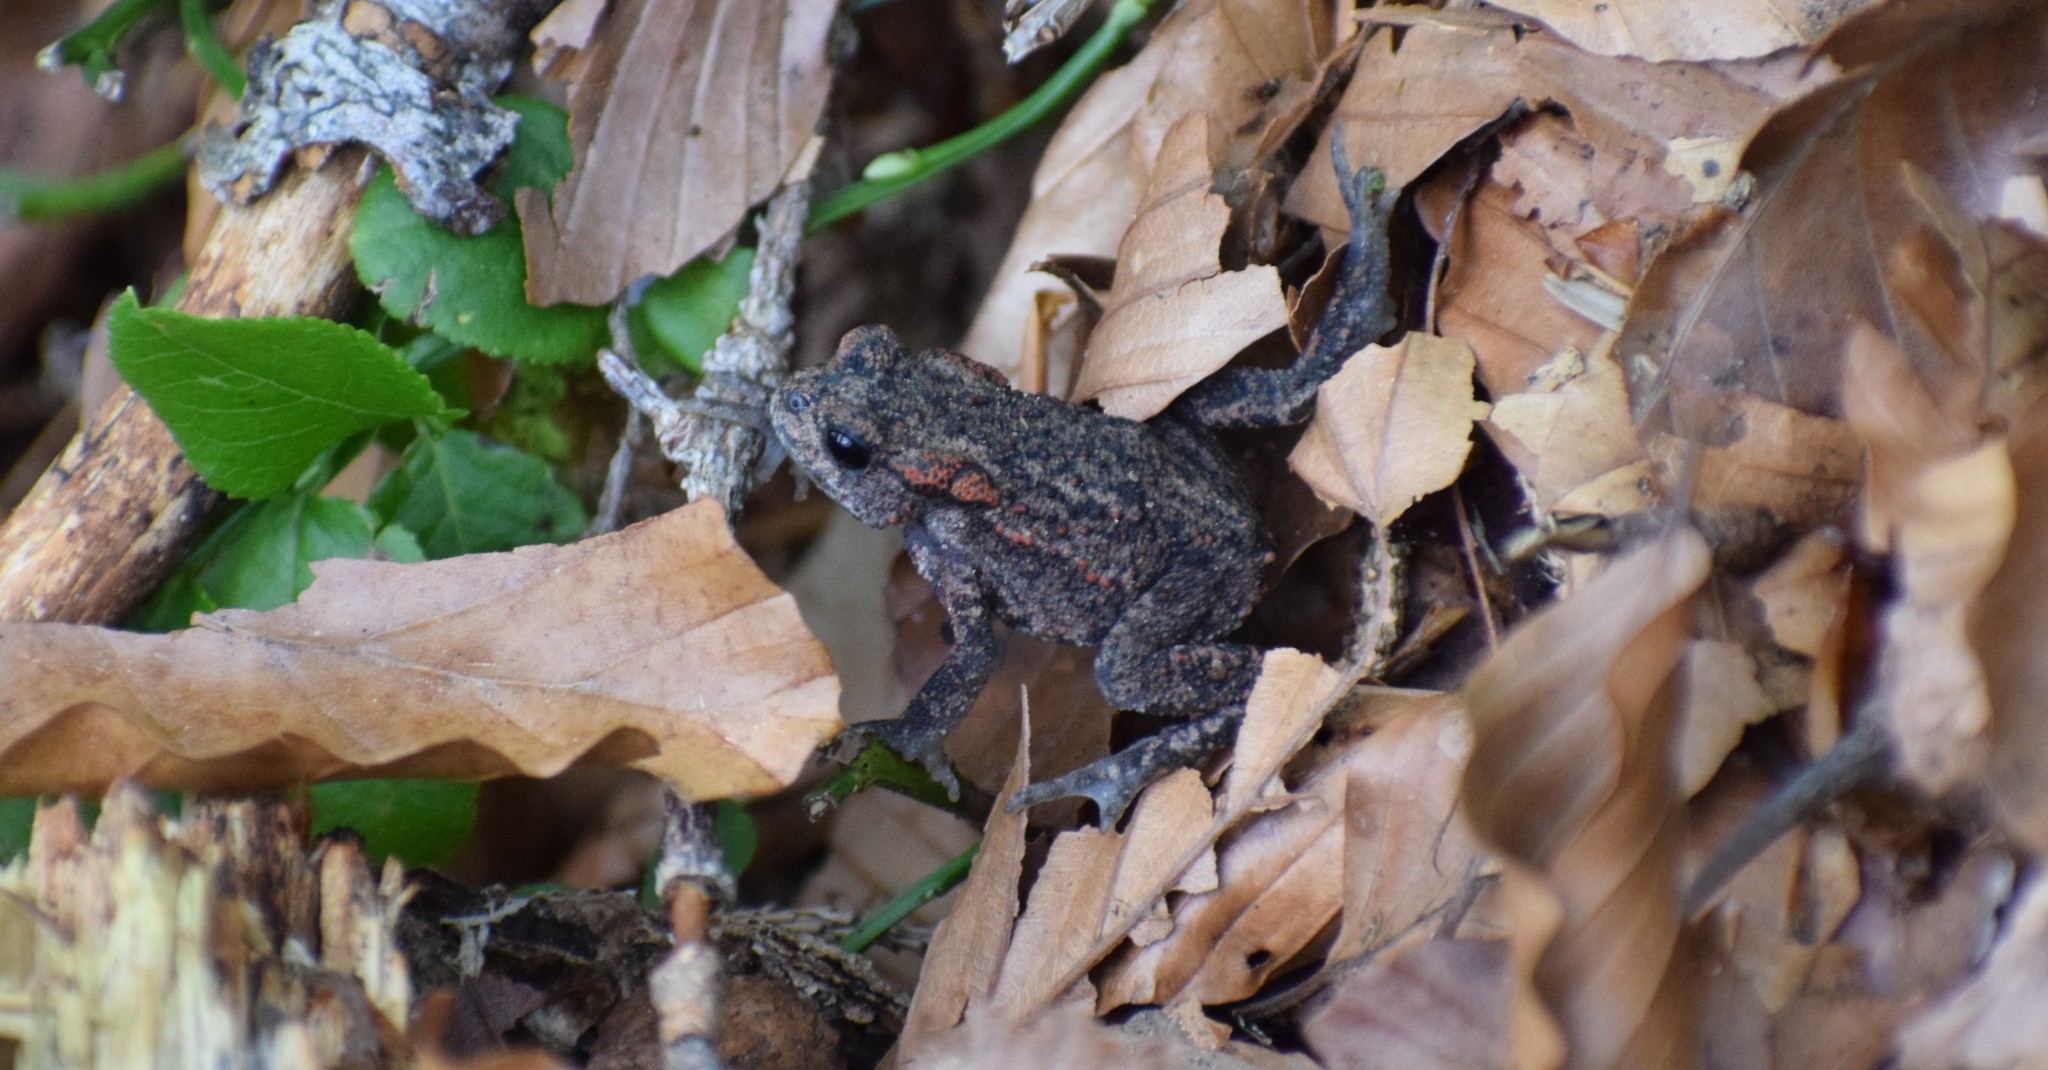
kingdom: Animalia
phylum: Chordata
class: Amphibia
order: Anura
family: Bufonidae
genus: Bufo
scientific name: Bufo bufo
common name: Common toad
